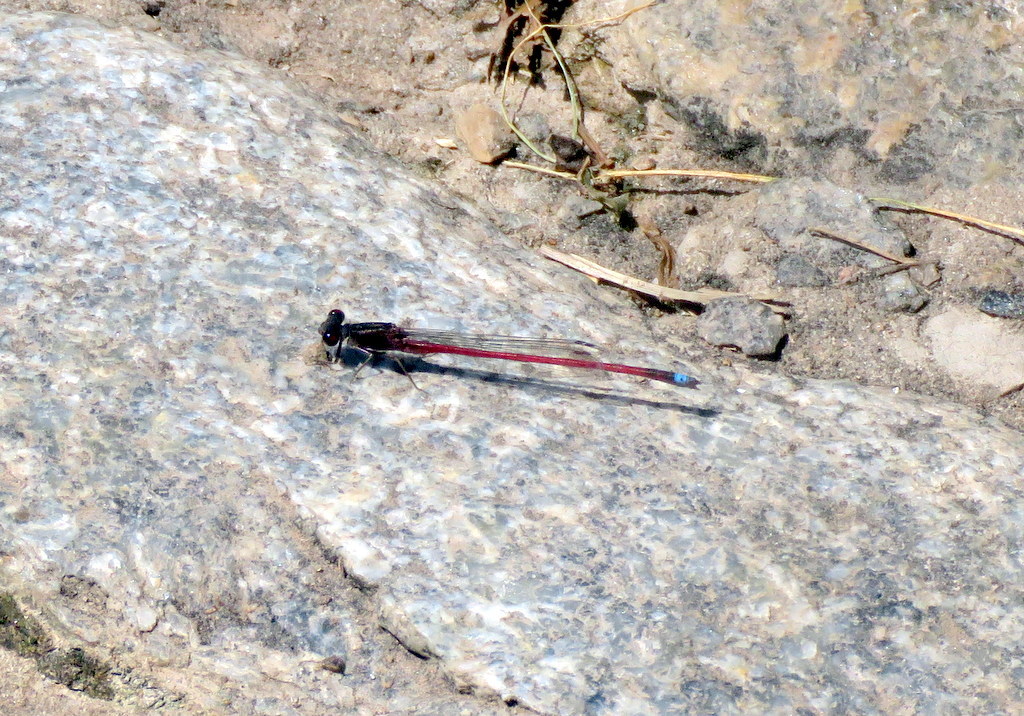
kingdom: Animalia
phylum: Arthropoda
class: Insecta
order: Odonata
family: Coenagrionidae
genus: Oxyagrion
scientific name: Oxyagrion rubidum
